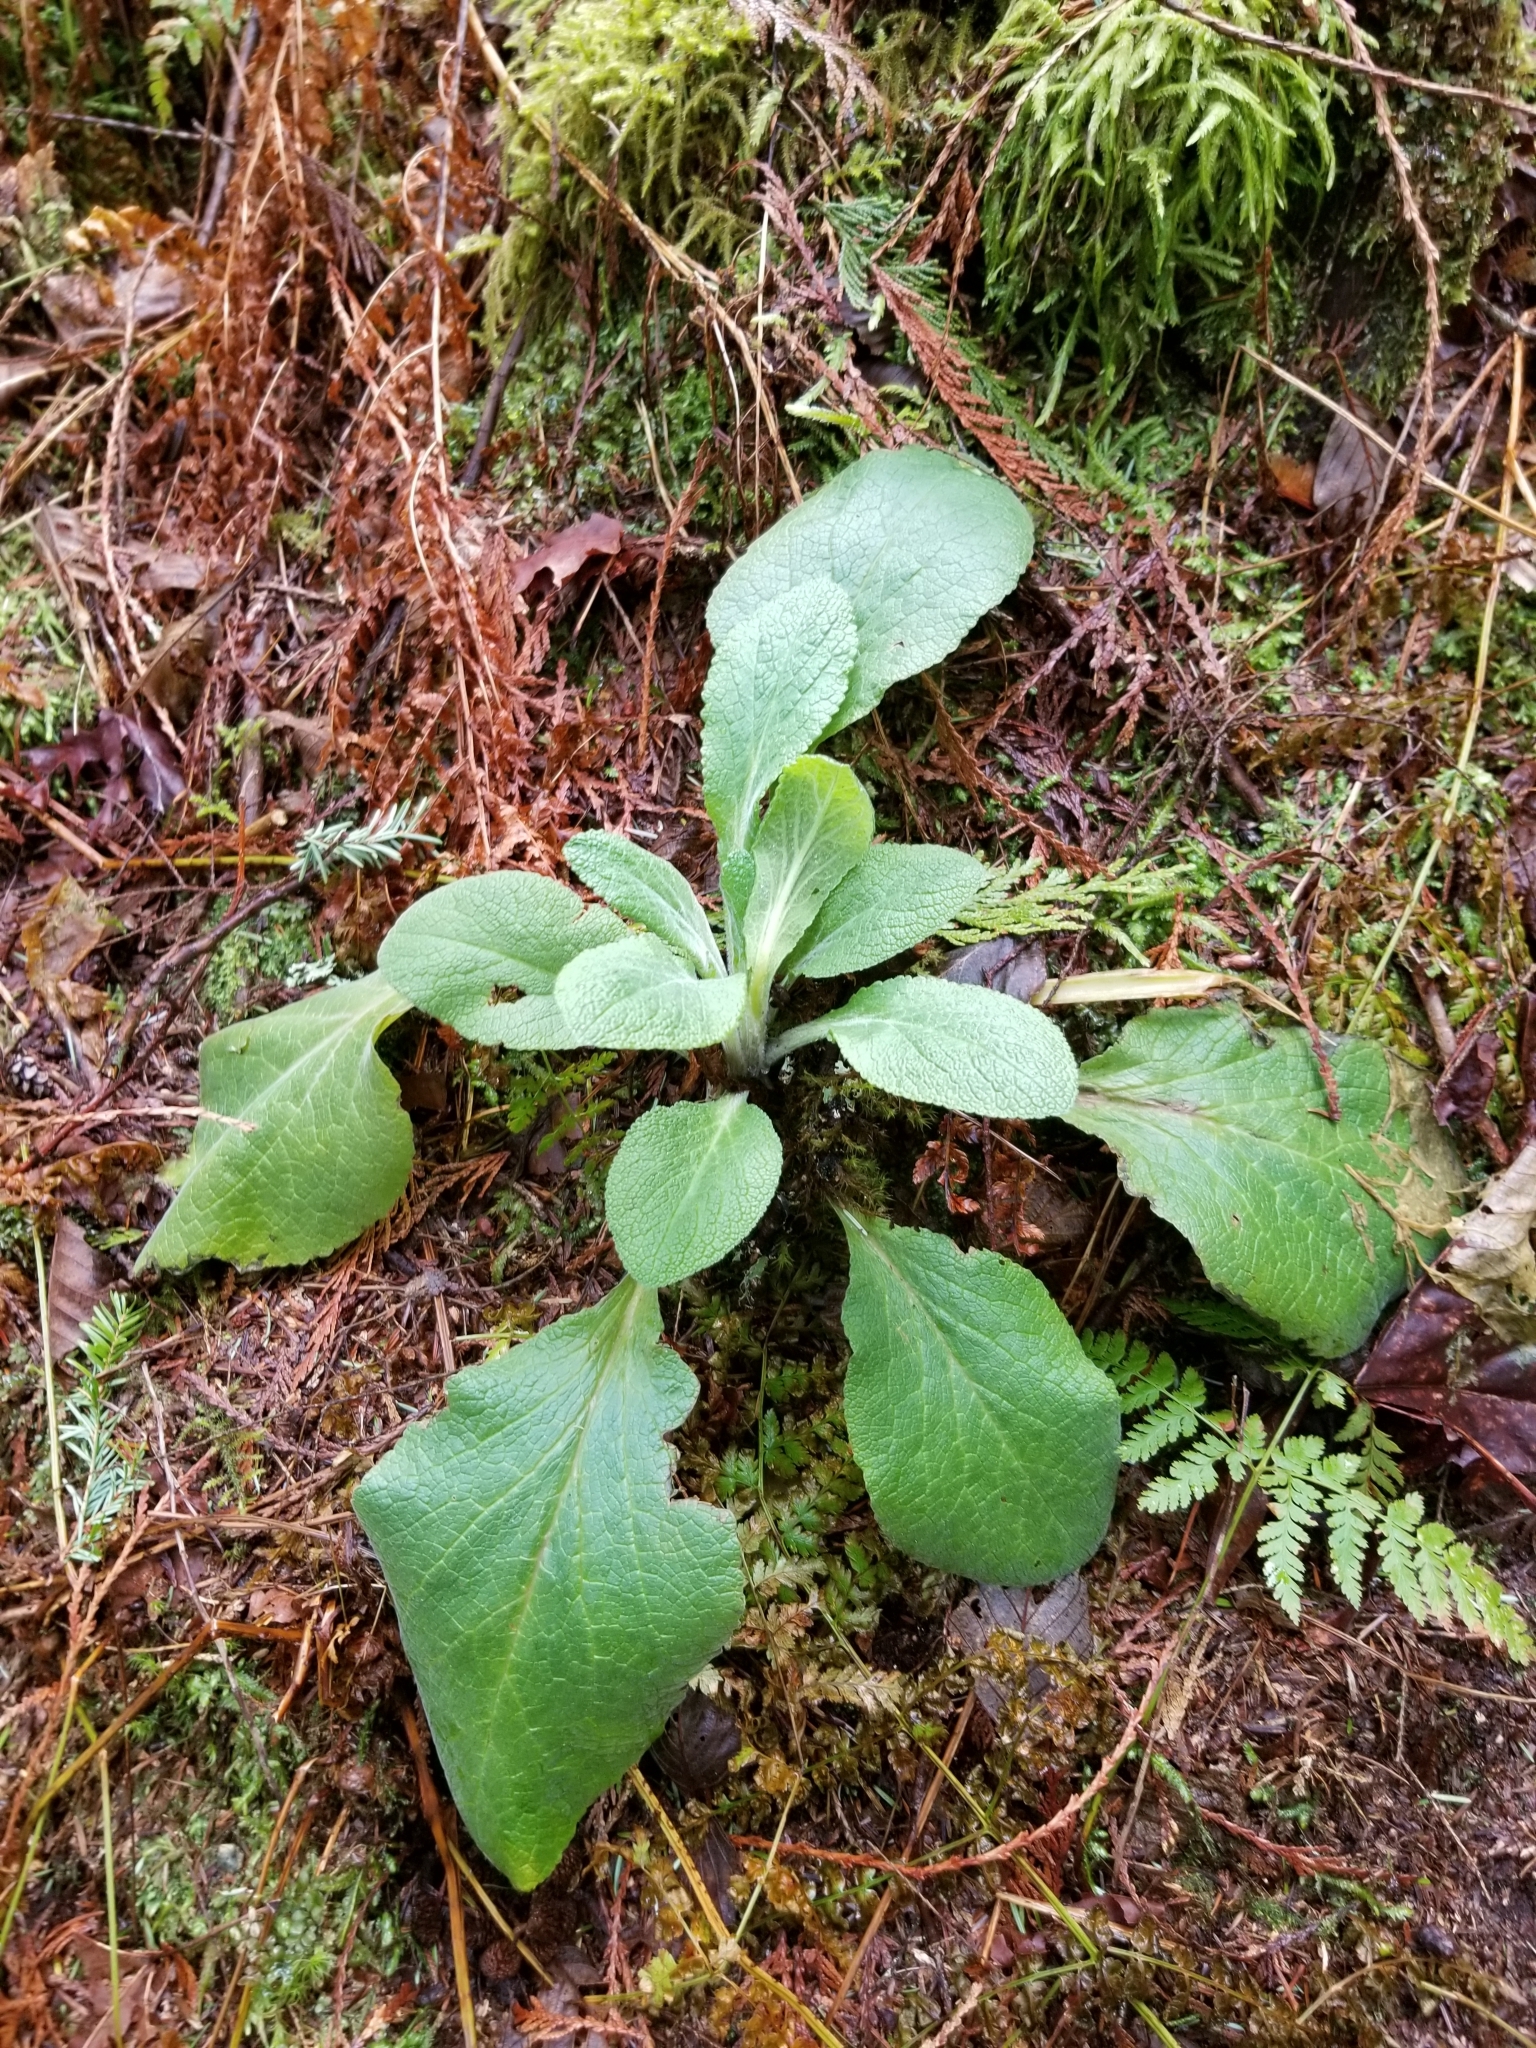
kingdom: Plantae
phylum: Tracheophyta
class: Magnoliopsida
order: Lamiales
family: Plantaginaceae
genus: Digitalis
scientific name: Digitalis purpurea
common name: Foxglove
